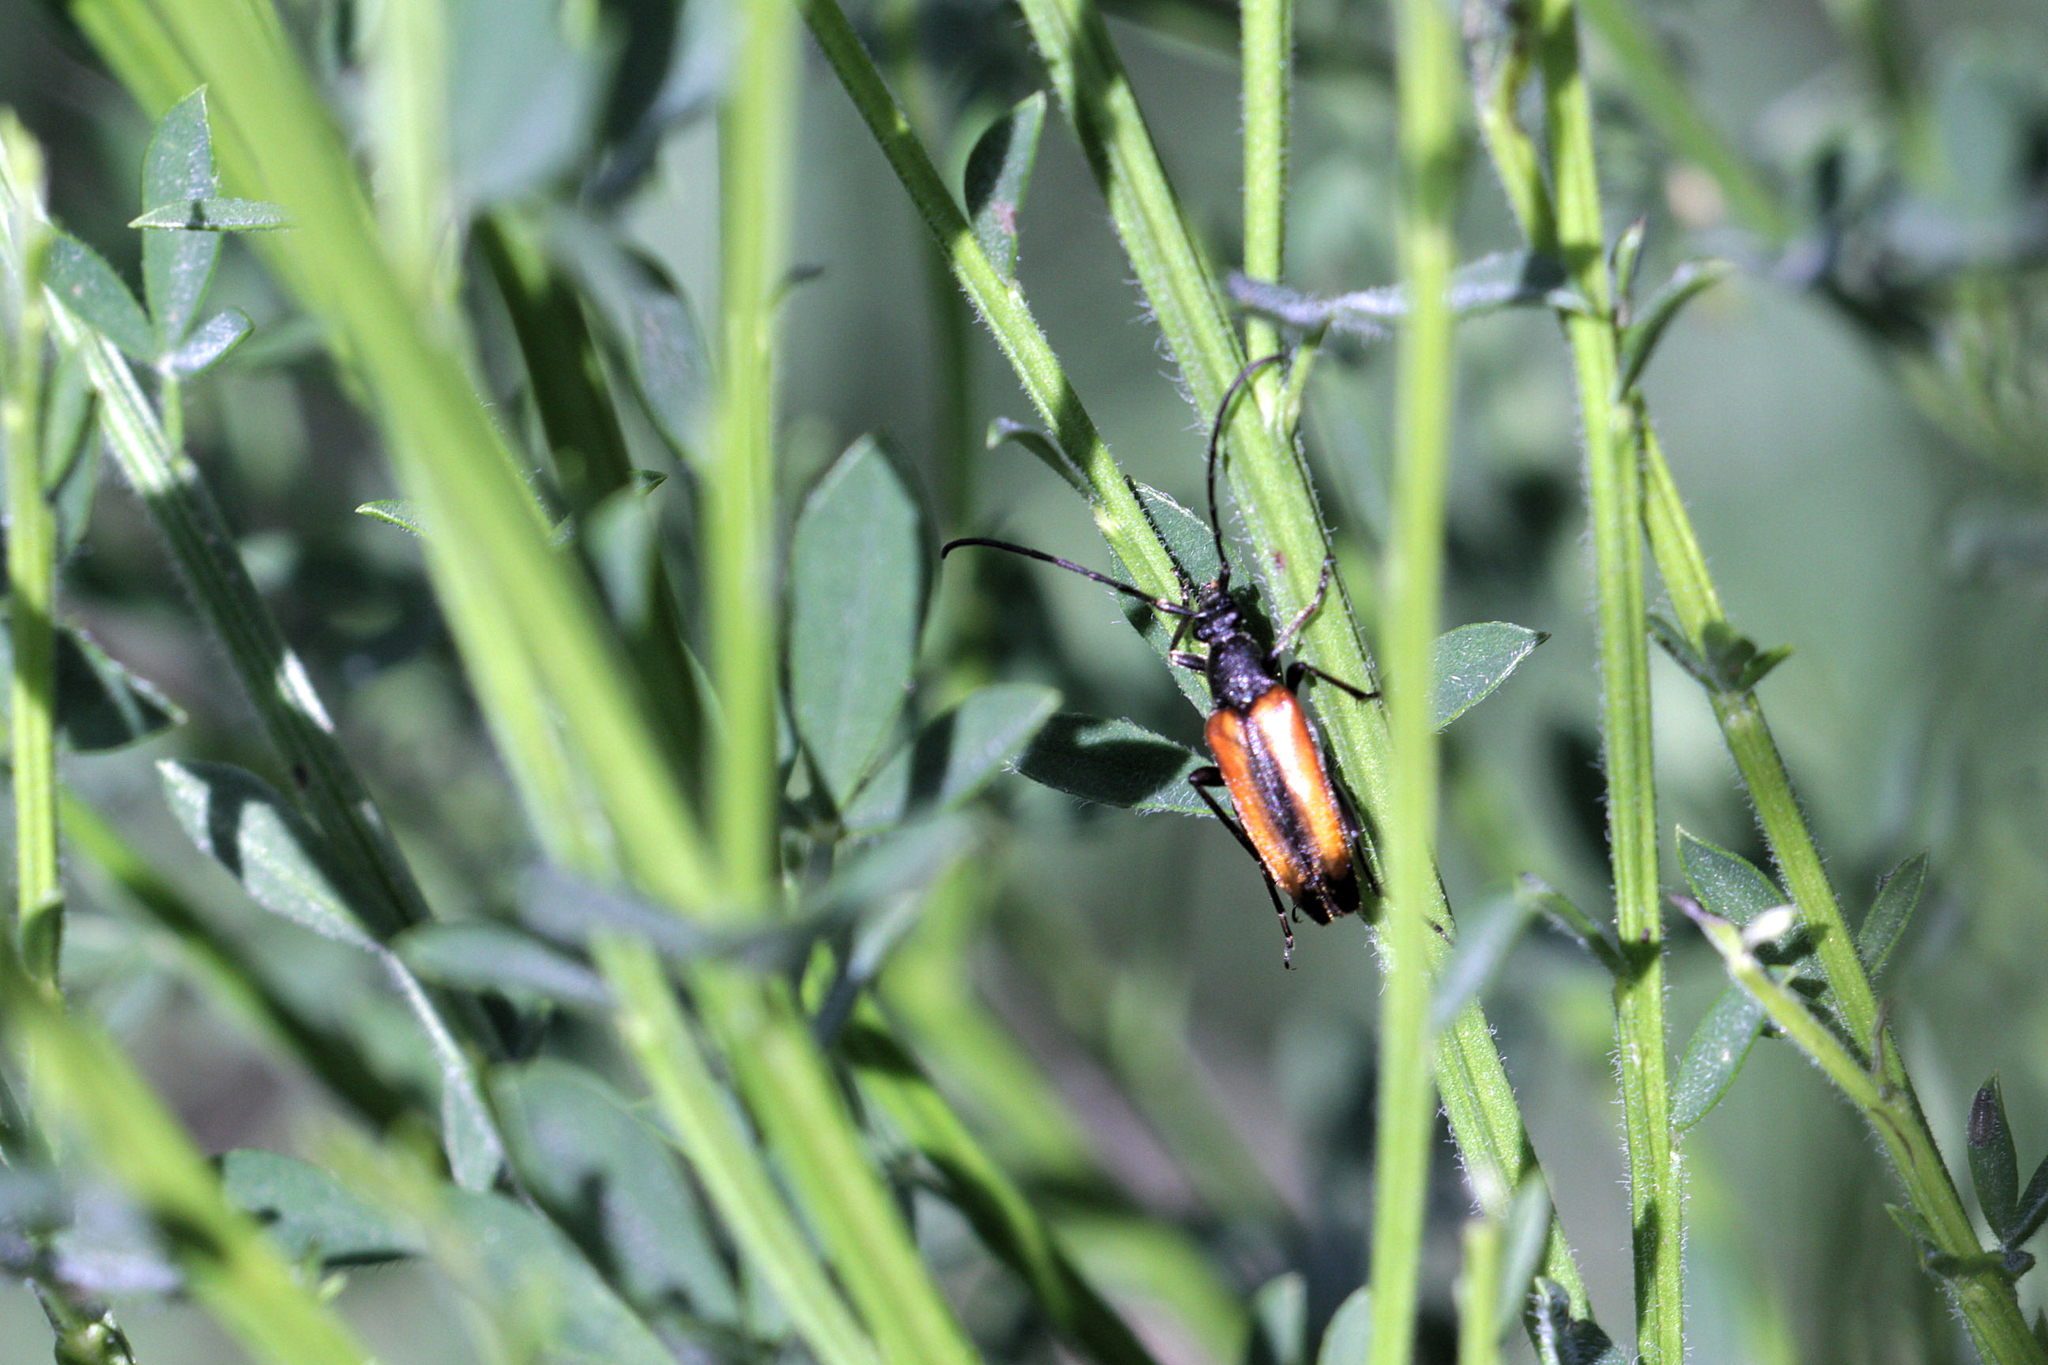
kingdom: Animalia
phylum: Arthropoda
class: Insecta
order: Coleoptera
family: Cerambycidae
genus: Stenurella
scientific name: Stenurella melanura
